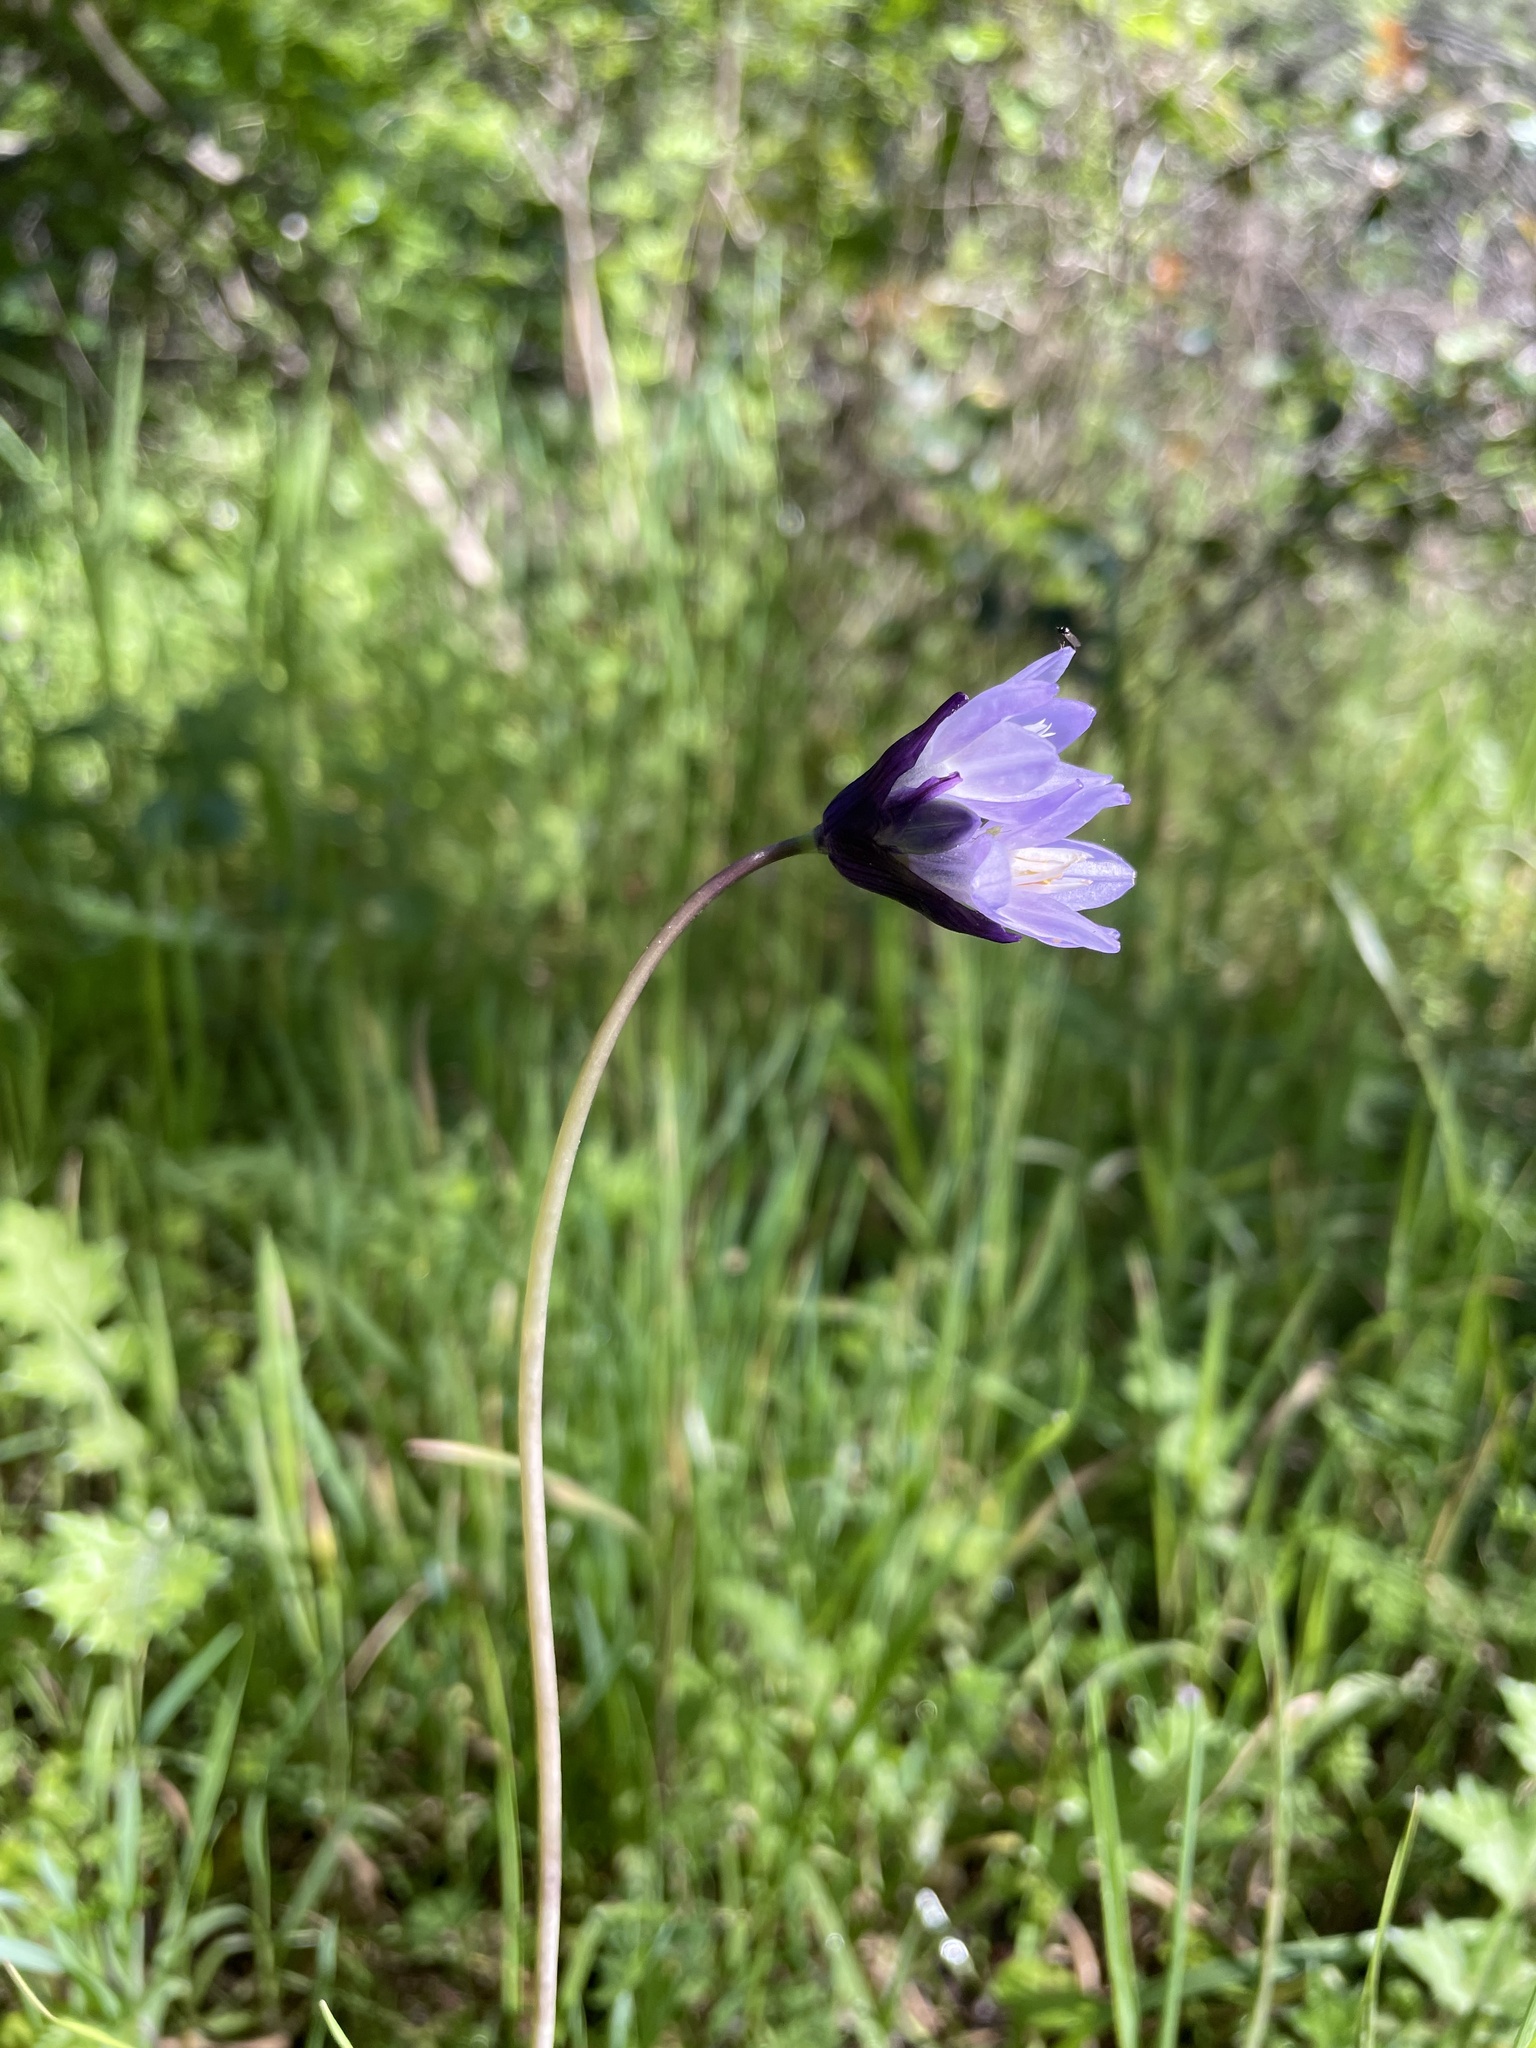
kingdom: Plantae
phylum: Tracheophyta
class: Liliopsida
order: Asparagales
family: Asparagaceae
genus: Dipterostemon
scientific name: Dipterostemon capitatus
